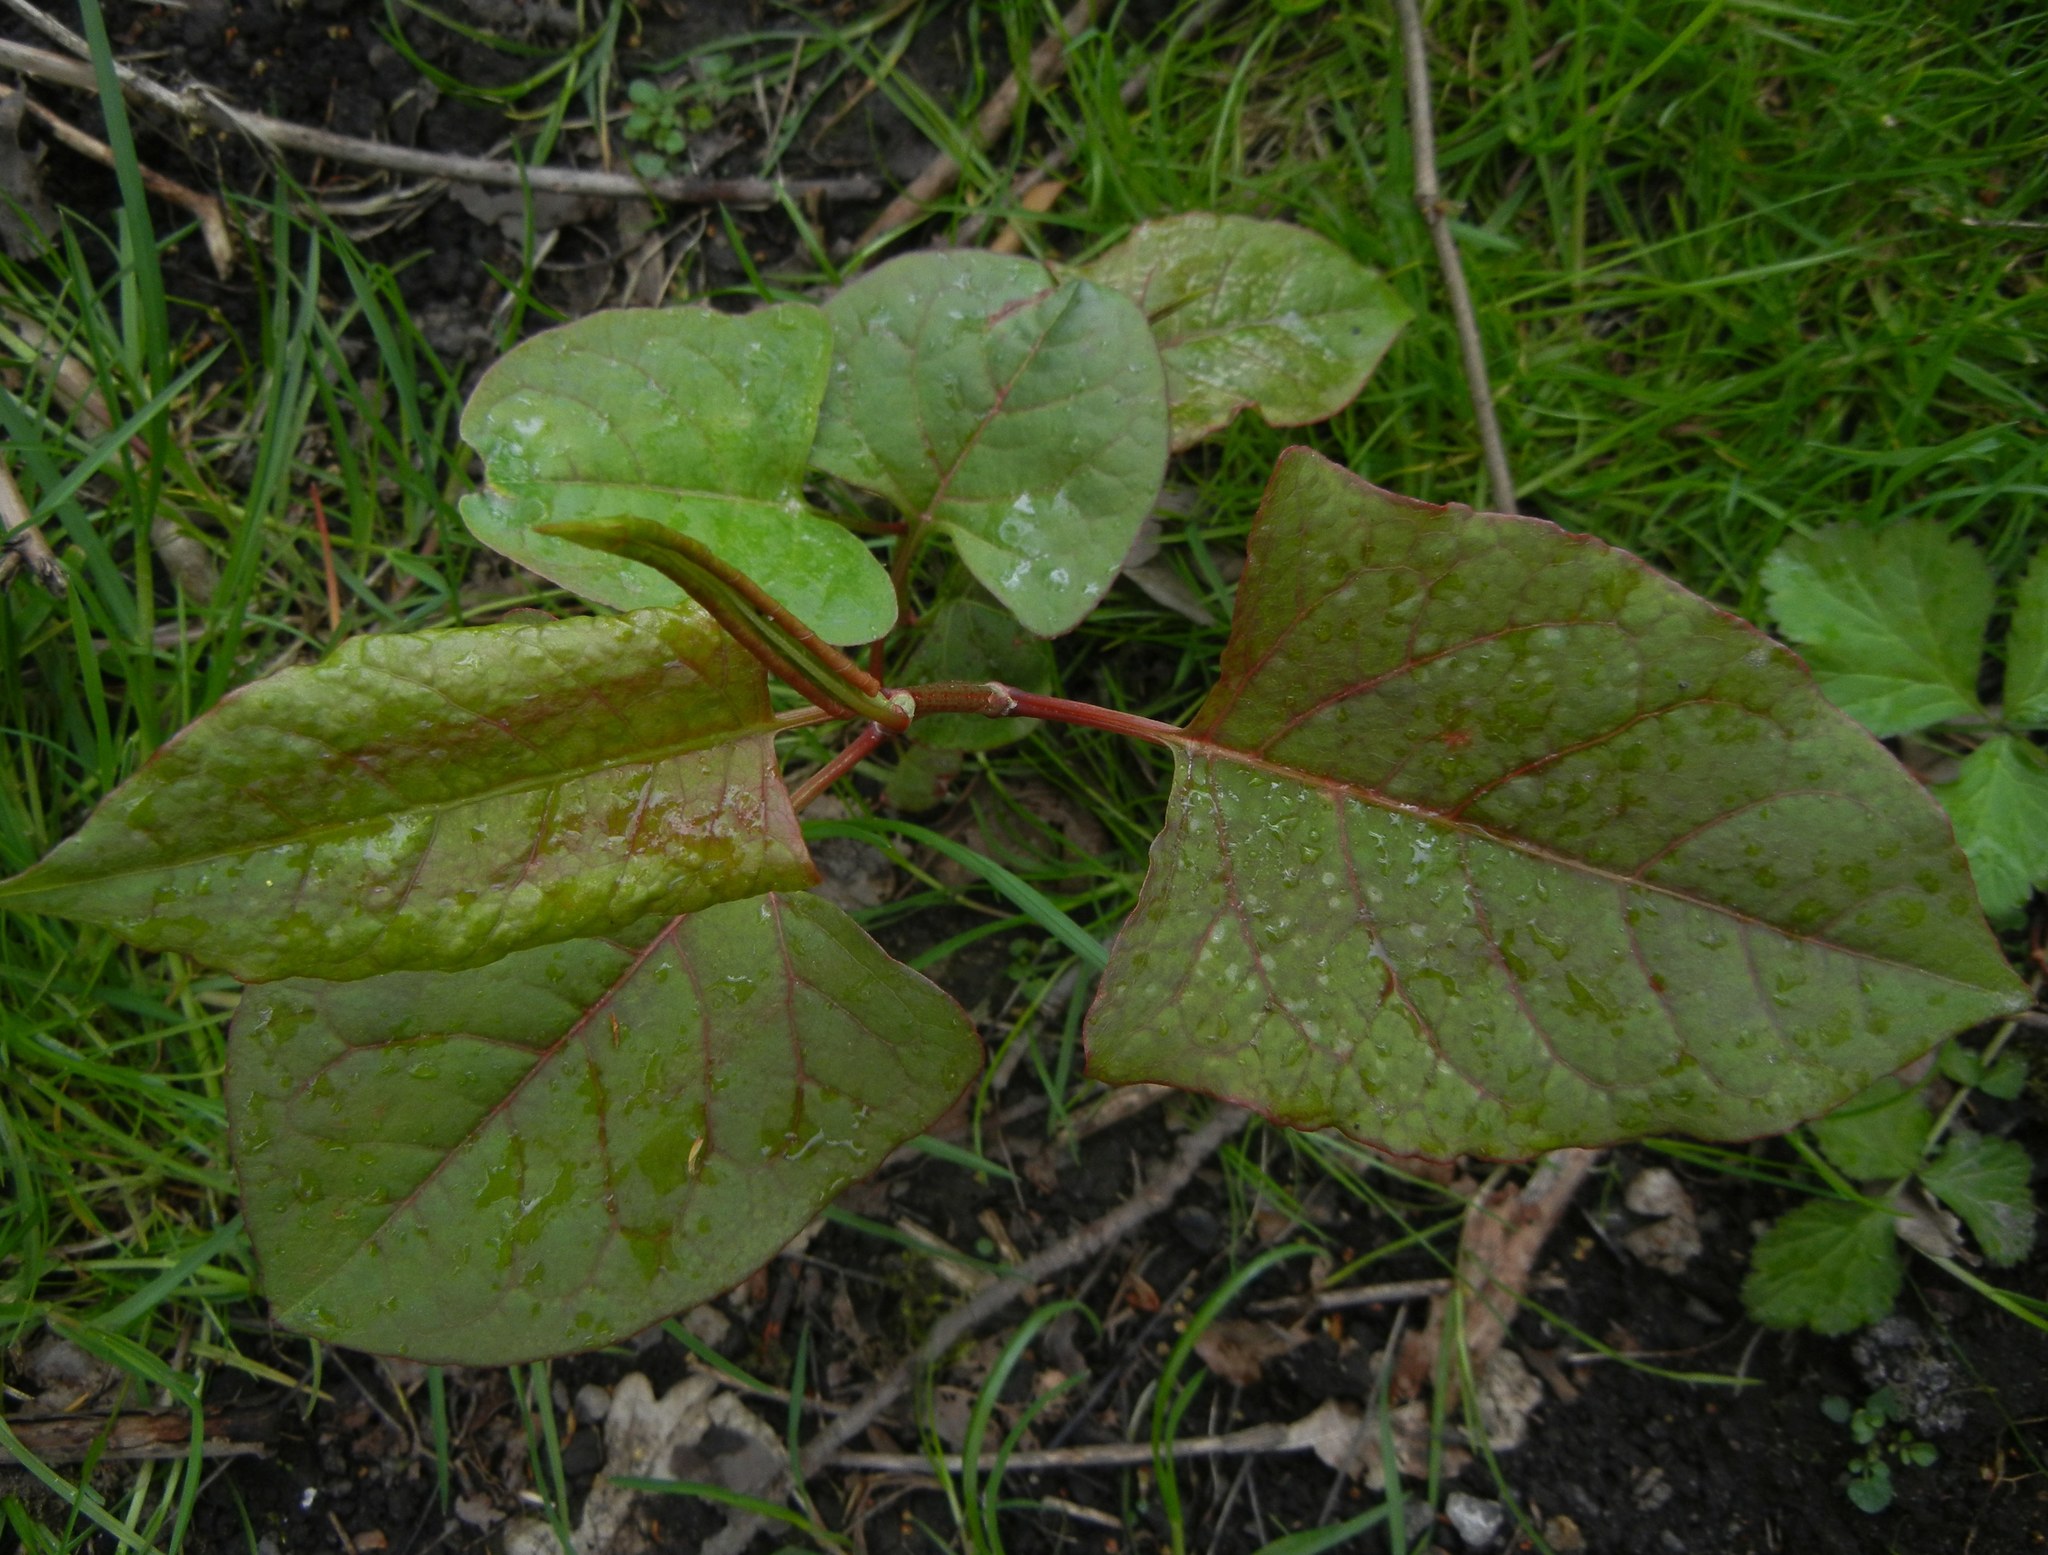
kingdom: Plantae
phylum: Tracheophyta
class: Magnoliopsida
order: Caryophyllales
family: Polygonaceae
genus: Reynoutria
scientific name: Reynoutria japonica
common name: Japanese knotweed
